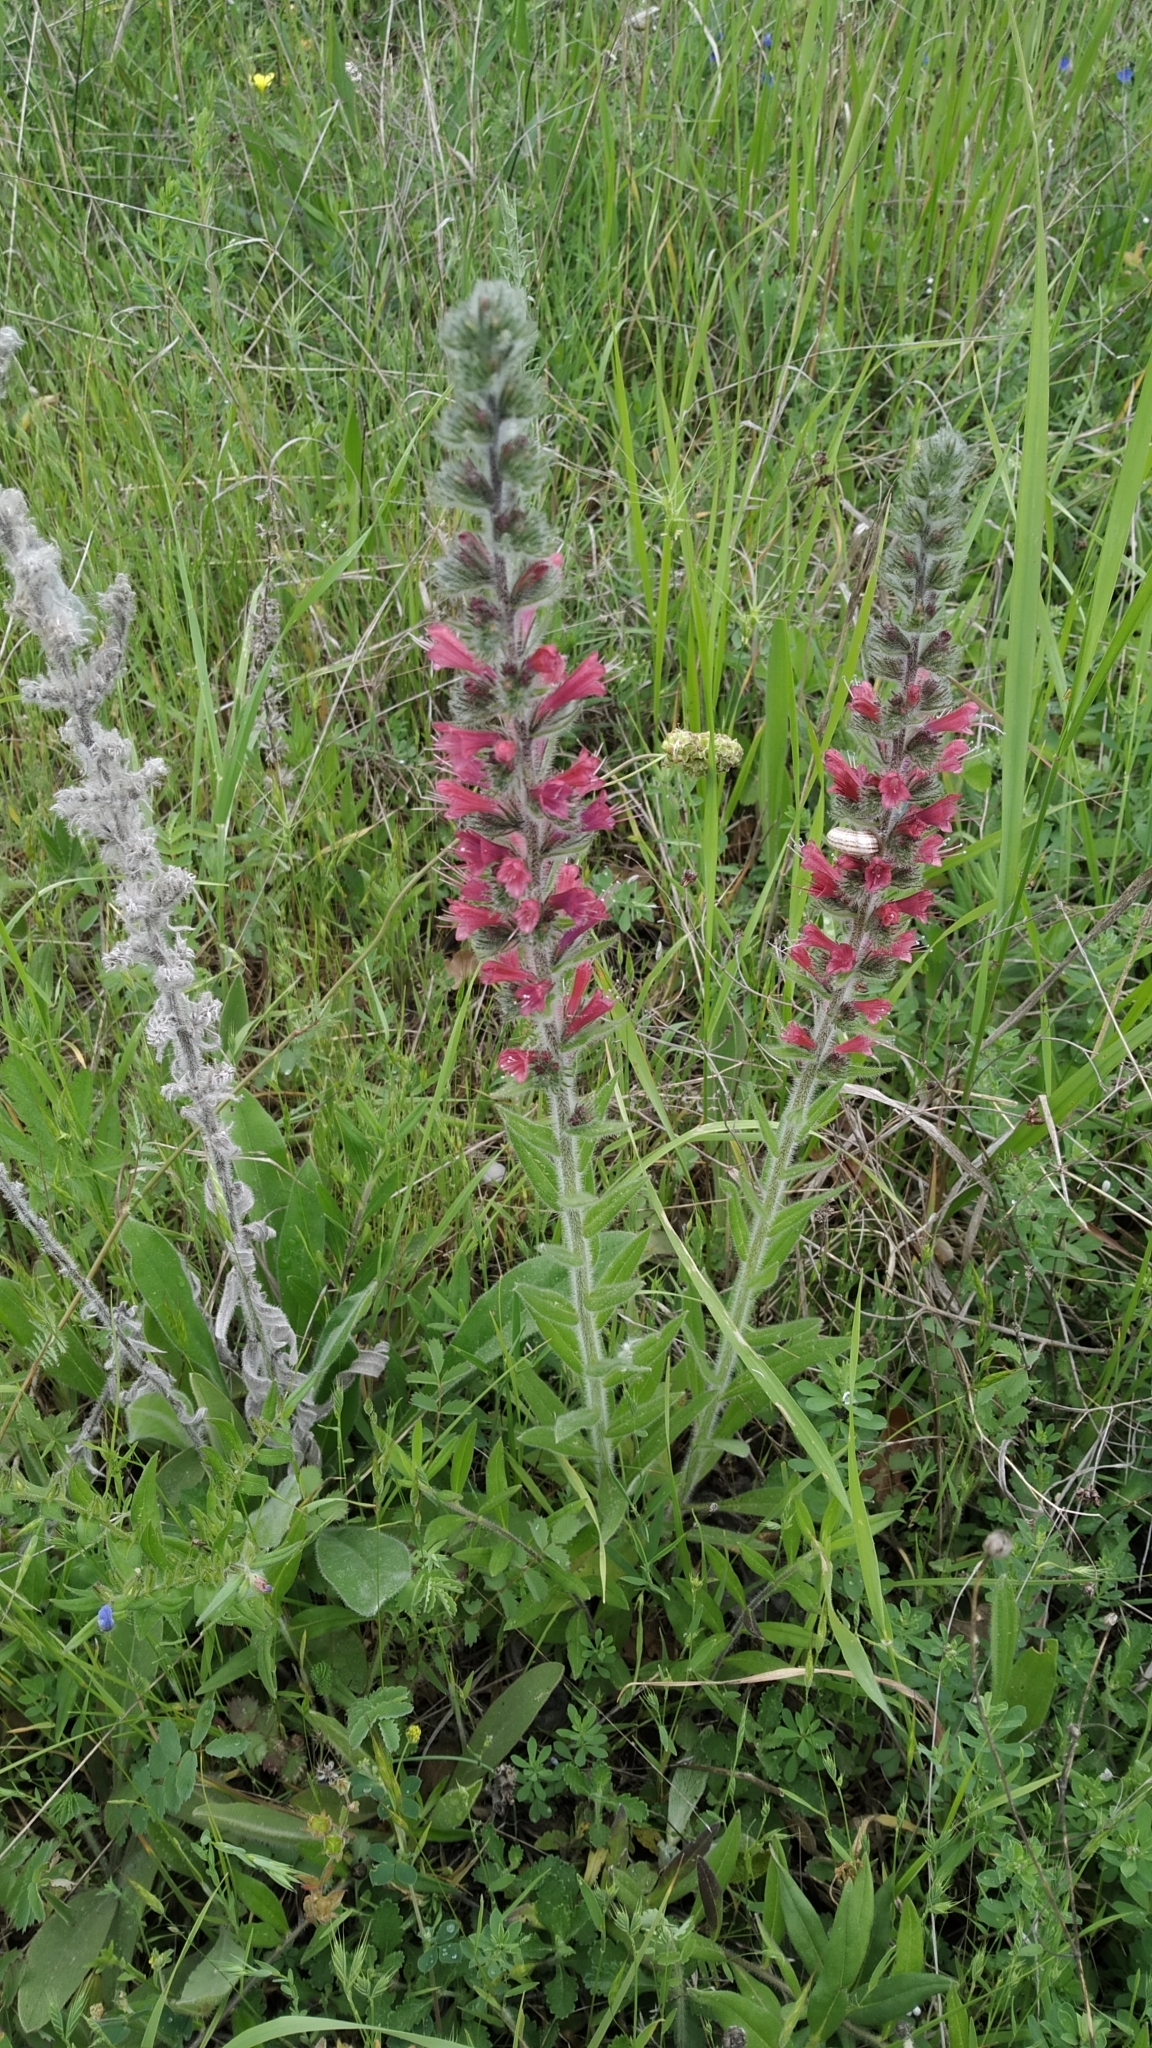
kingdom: Plantae
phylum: Tracheophyta
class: Magnoliopsida
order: Boraginales
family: Boraginaceae
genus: Pontechium
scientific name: Pontechium maculatum
